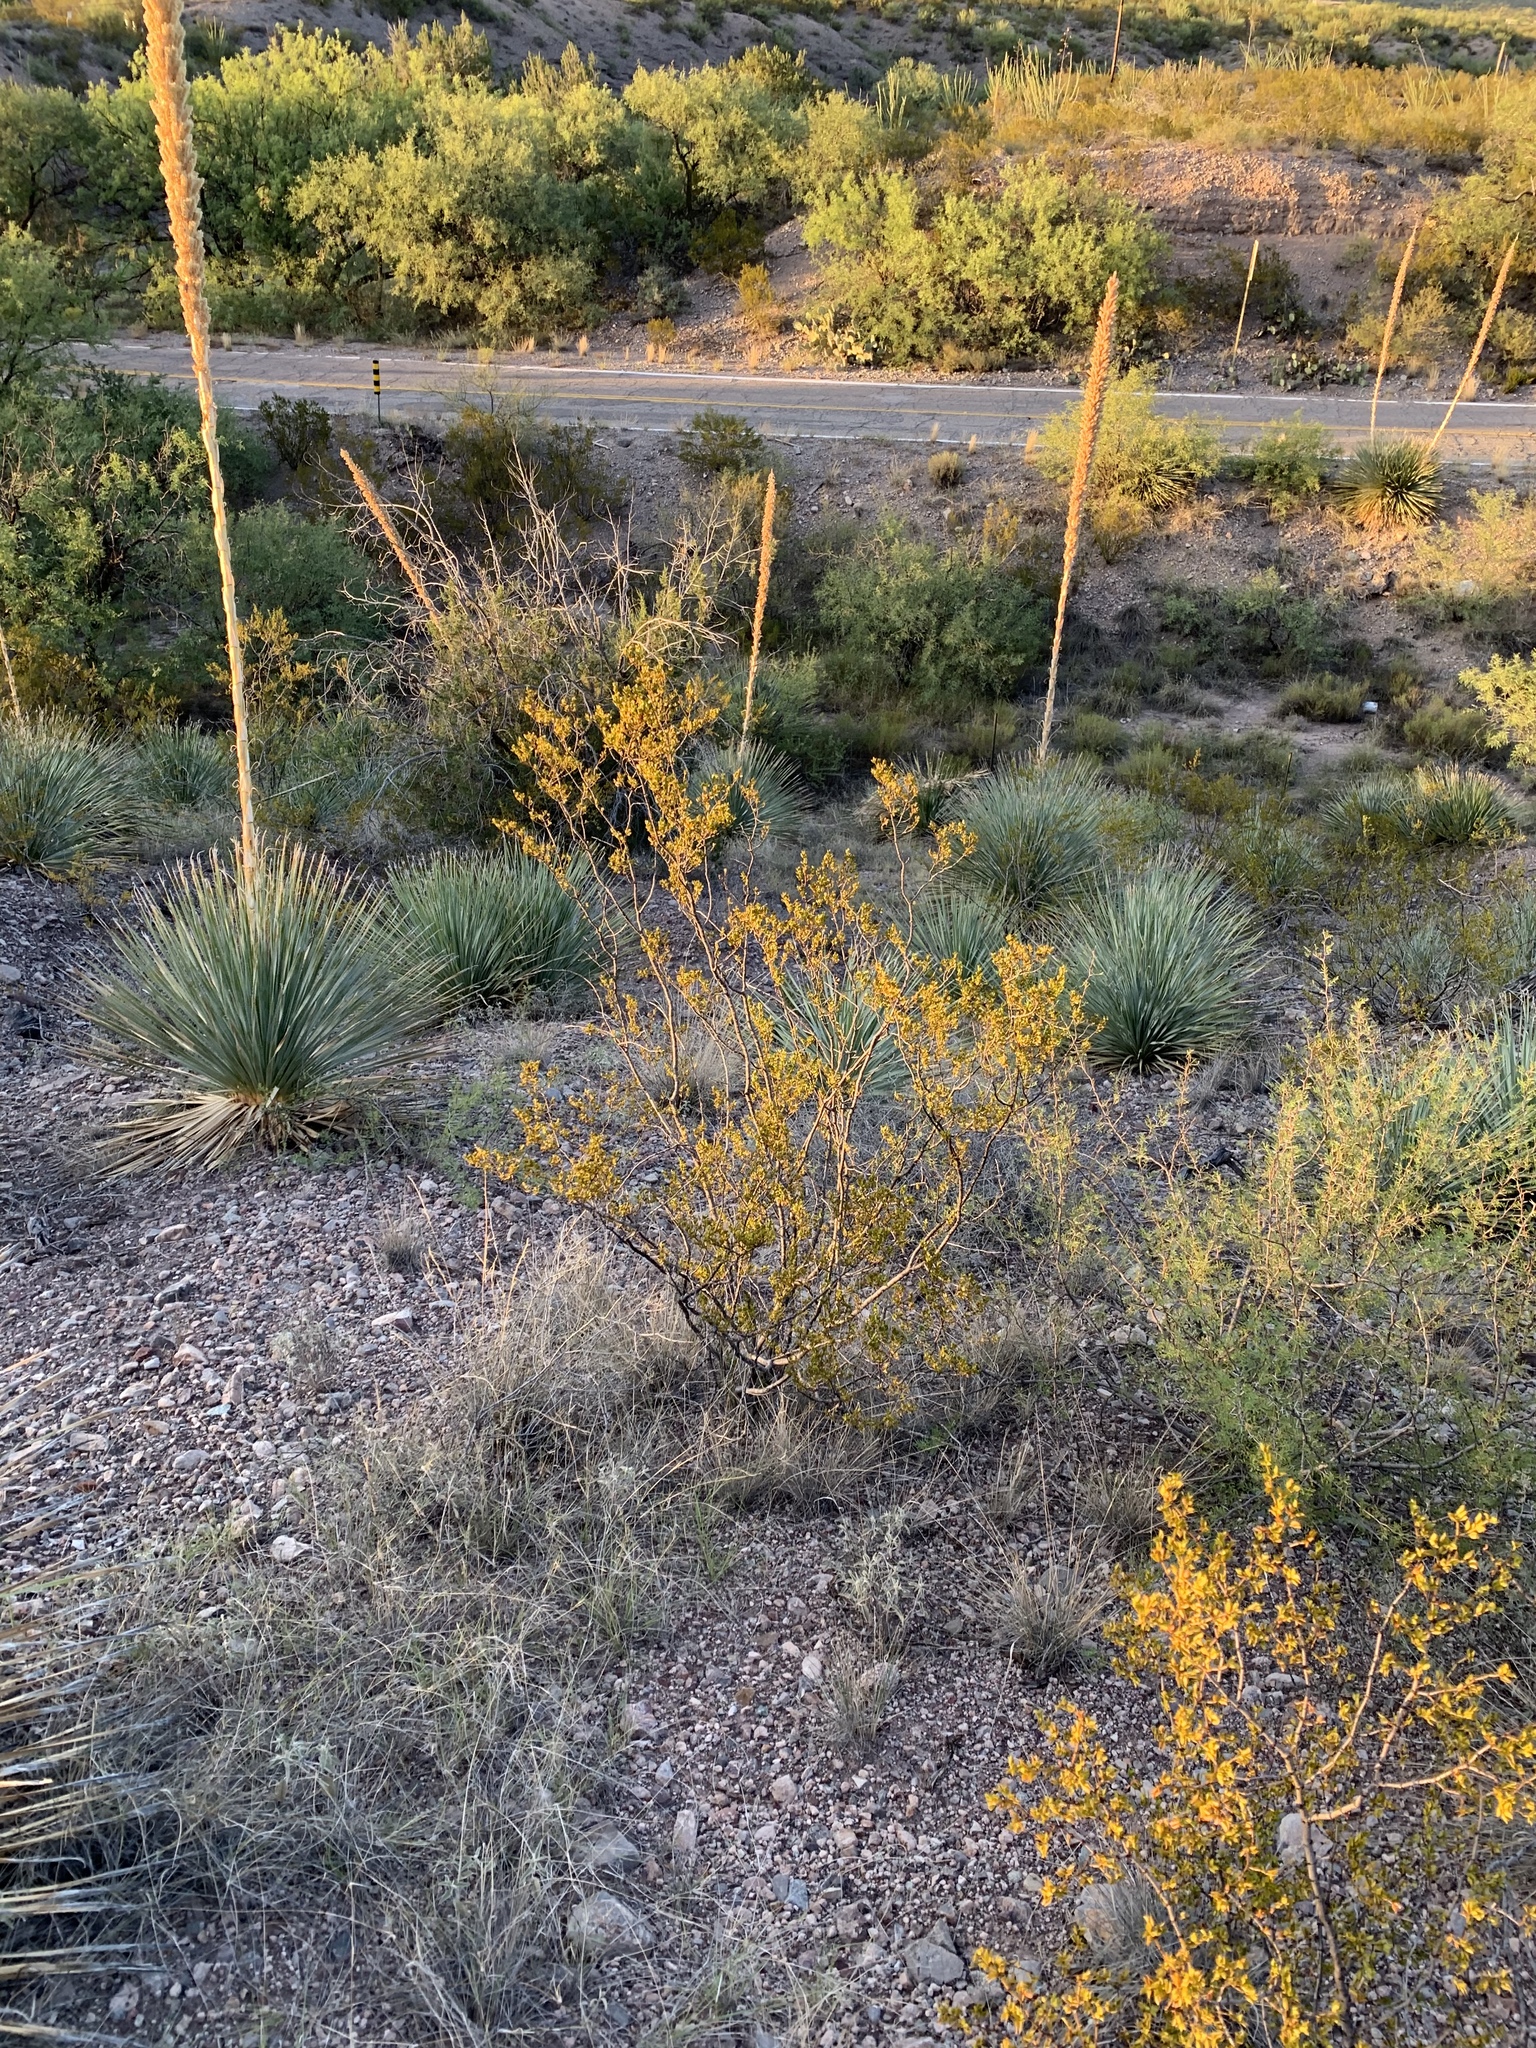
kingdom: Plantae
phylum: Tracheophyta
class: Magnoliopsida
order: Zygophyllales
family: Zygophyllaceae
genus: Larrea
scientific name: Larrea tridentata
